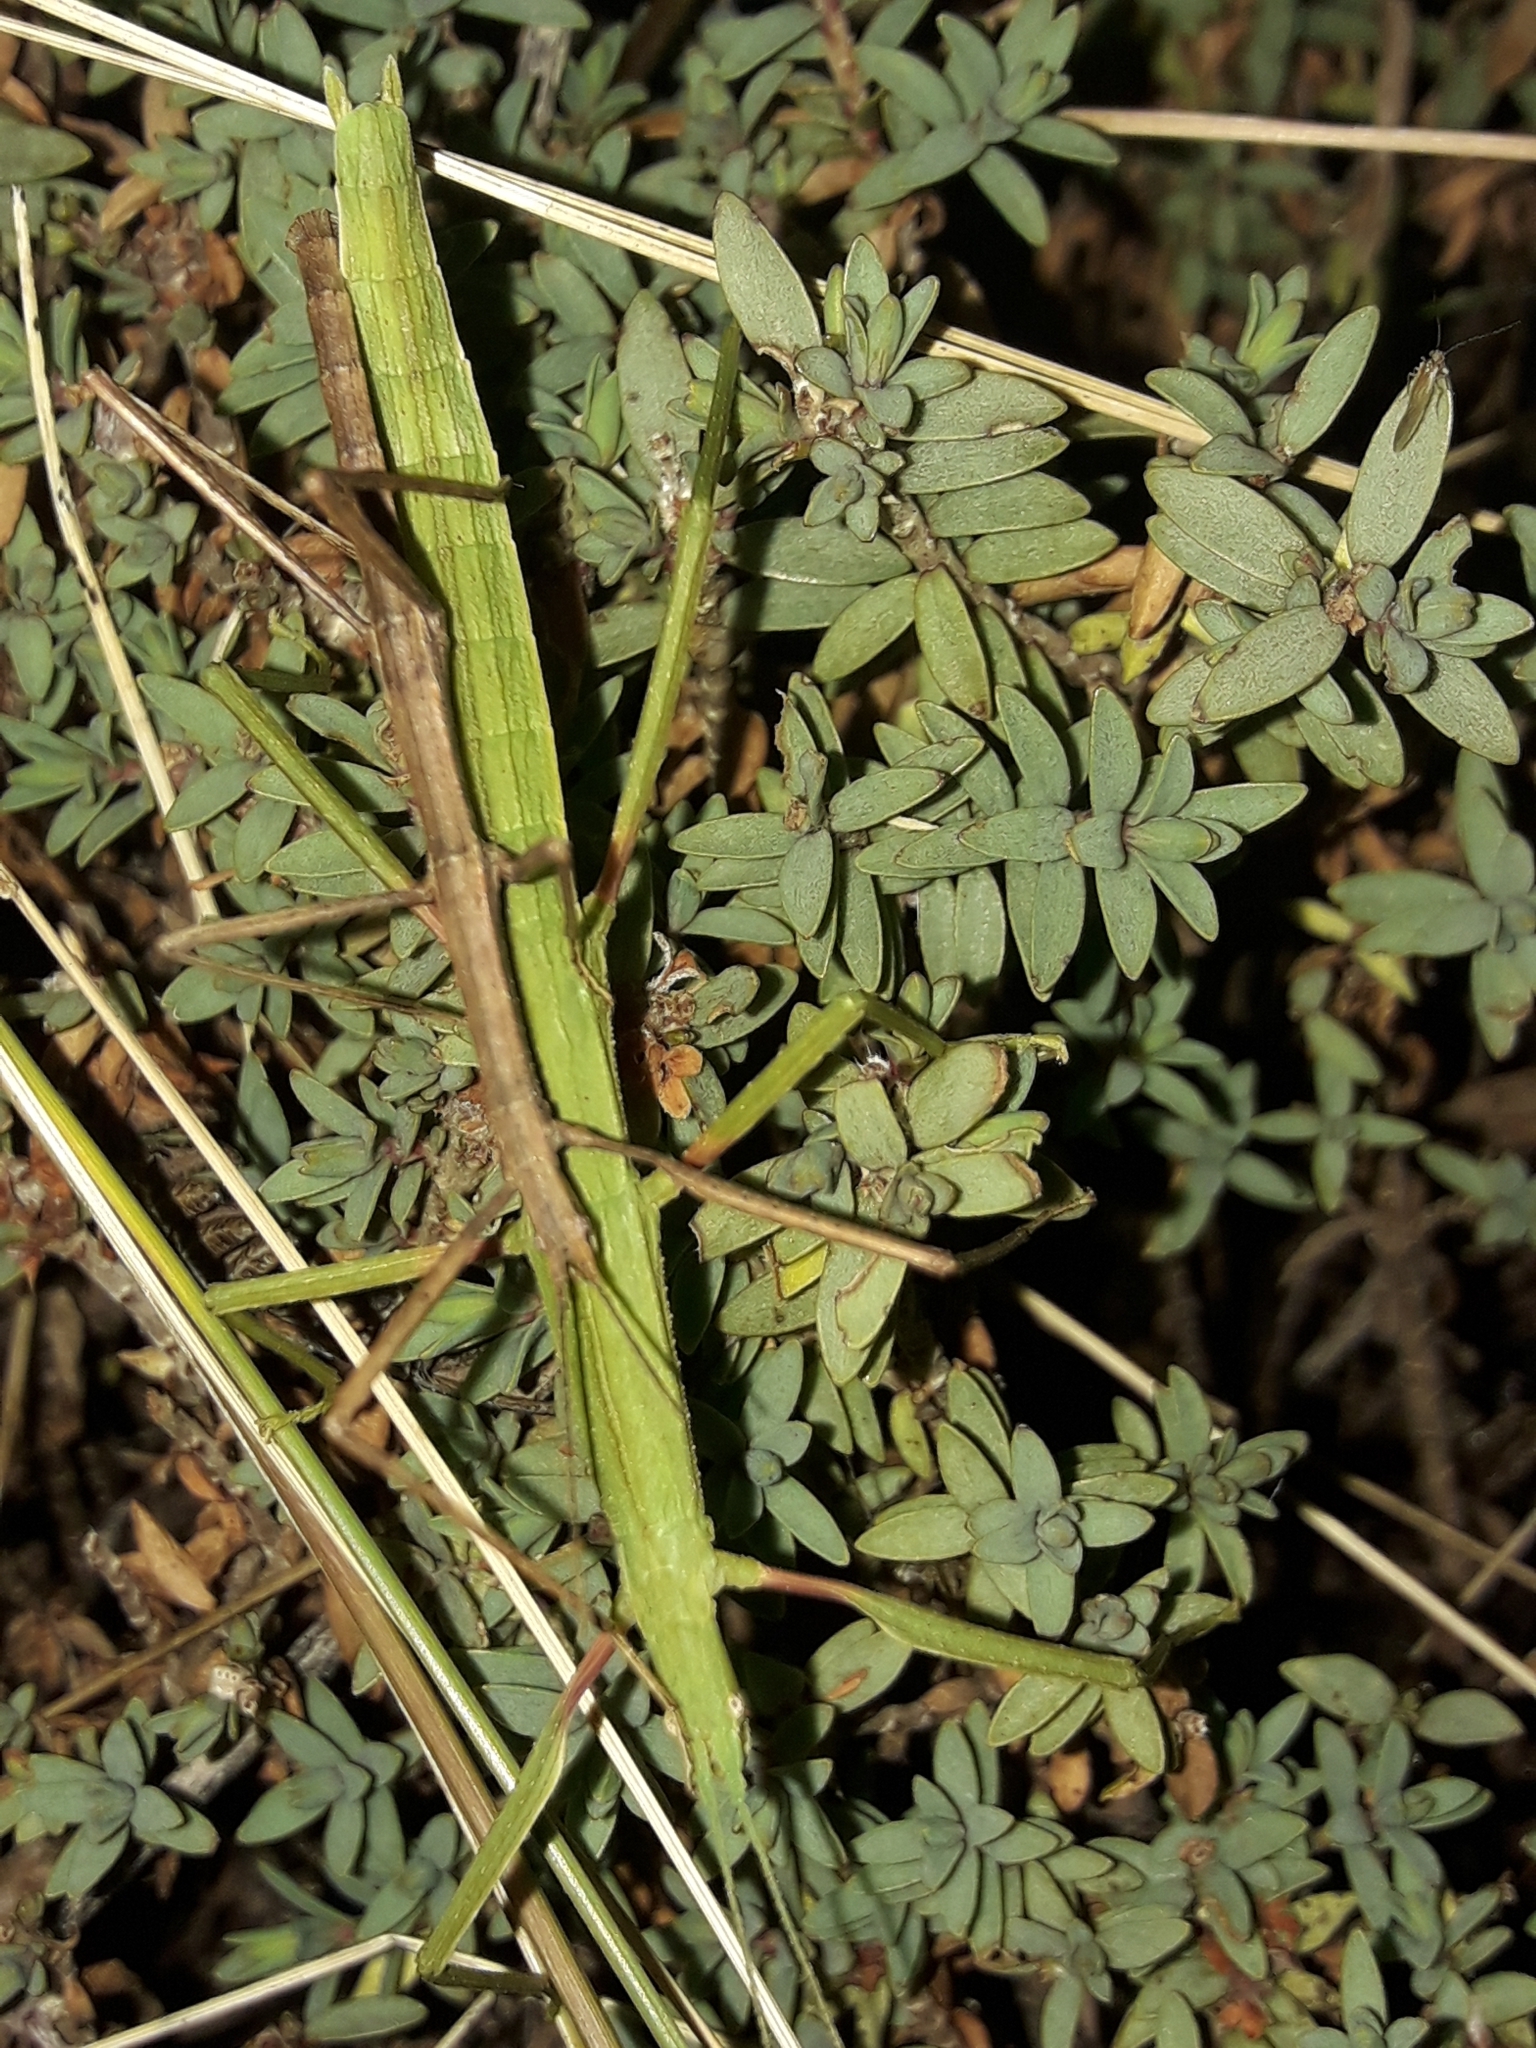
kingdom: Animalia
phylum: Arthropoda
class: Insecta
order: Phasmida
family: Phasmatidae
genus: Tectarchus
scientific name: Tectarchus huttoni
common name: The common ridge-backed stick insect
